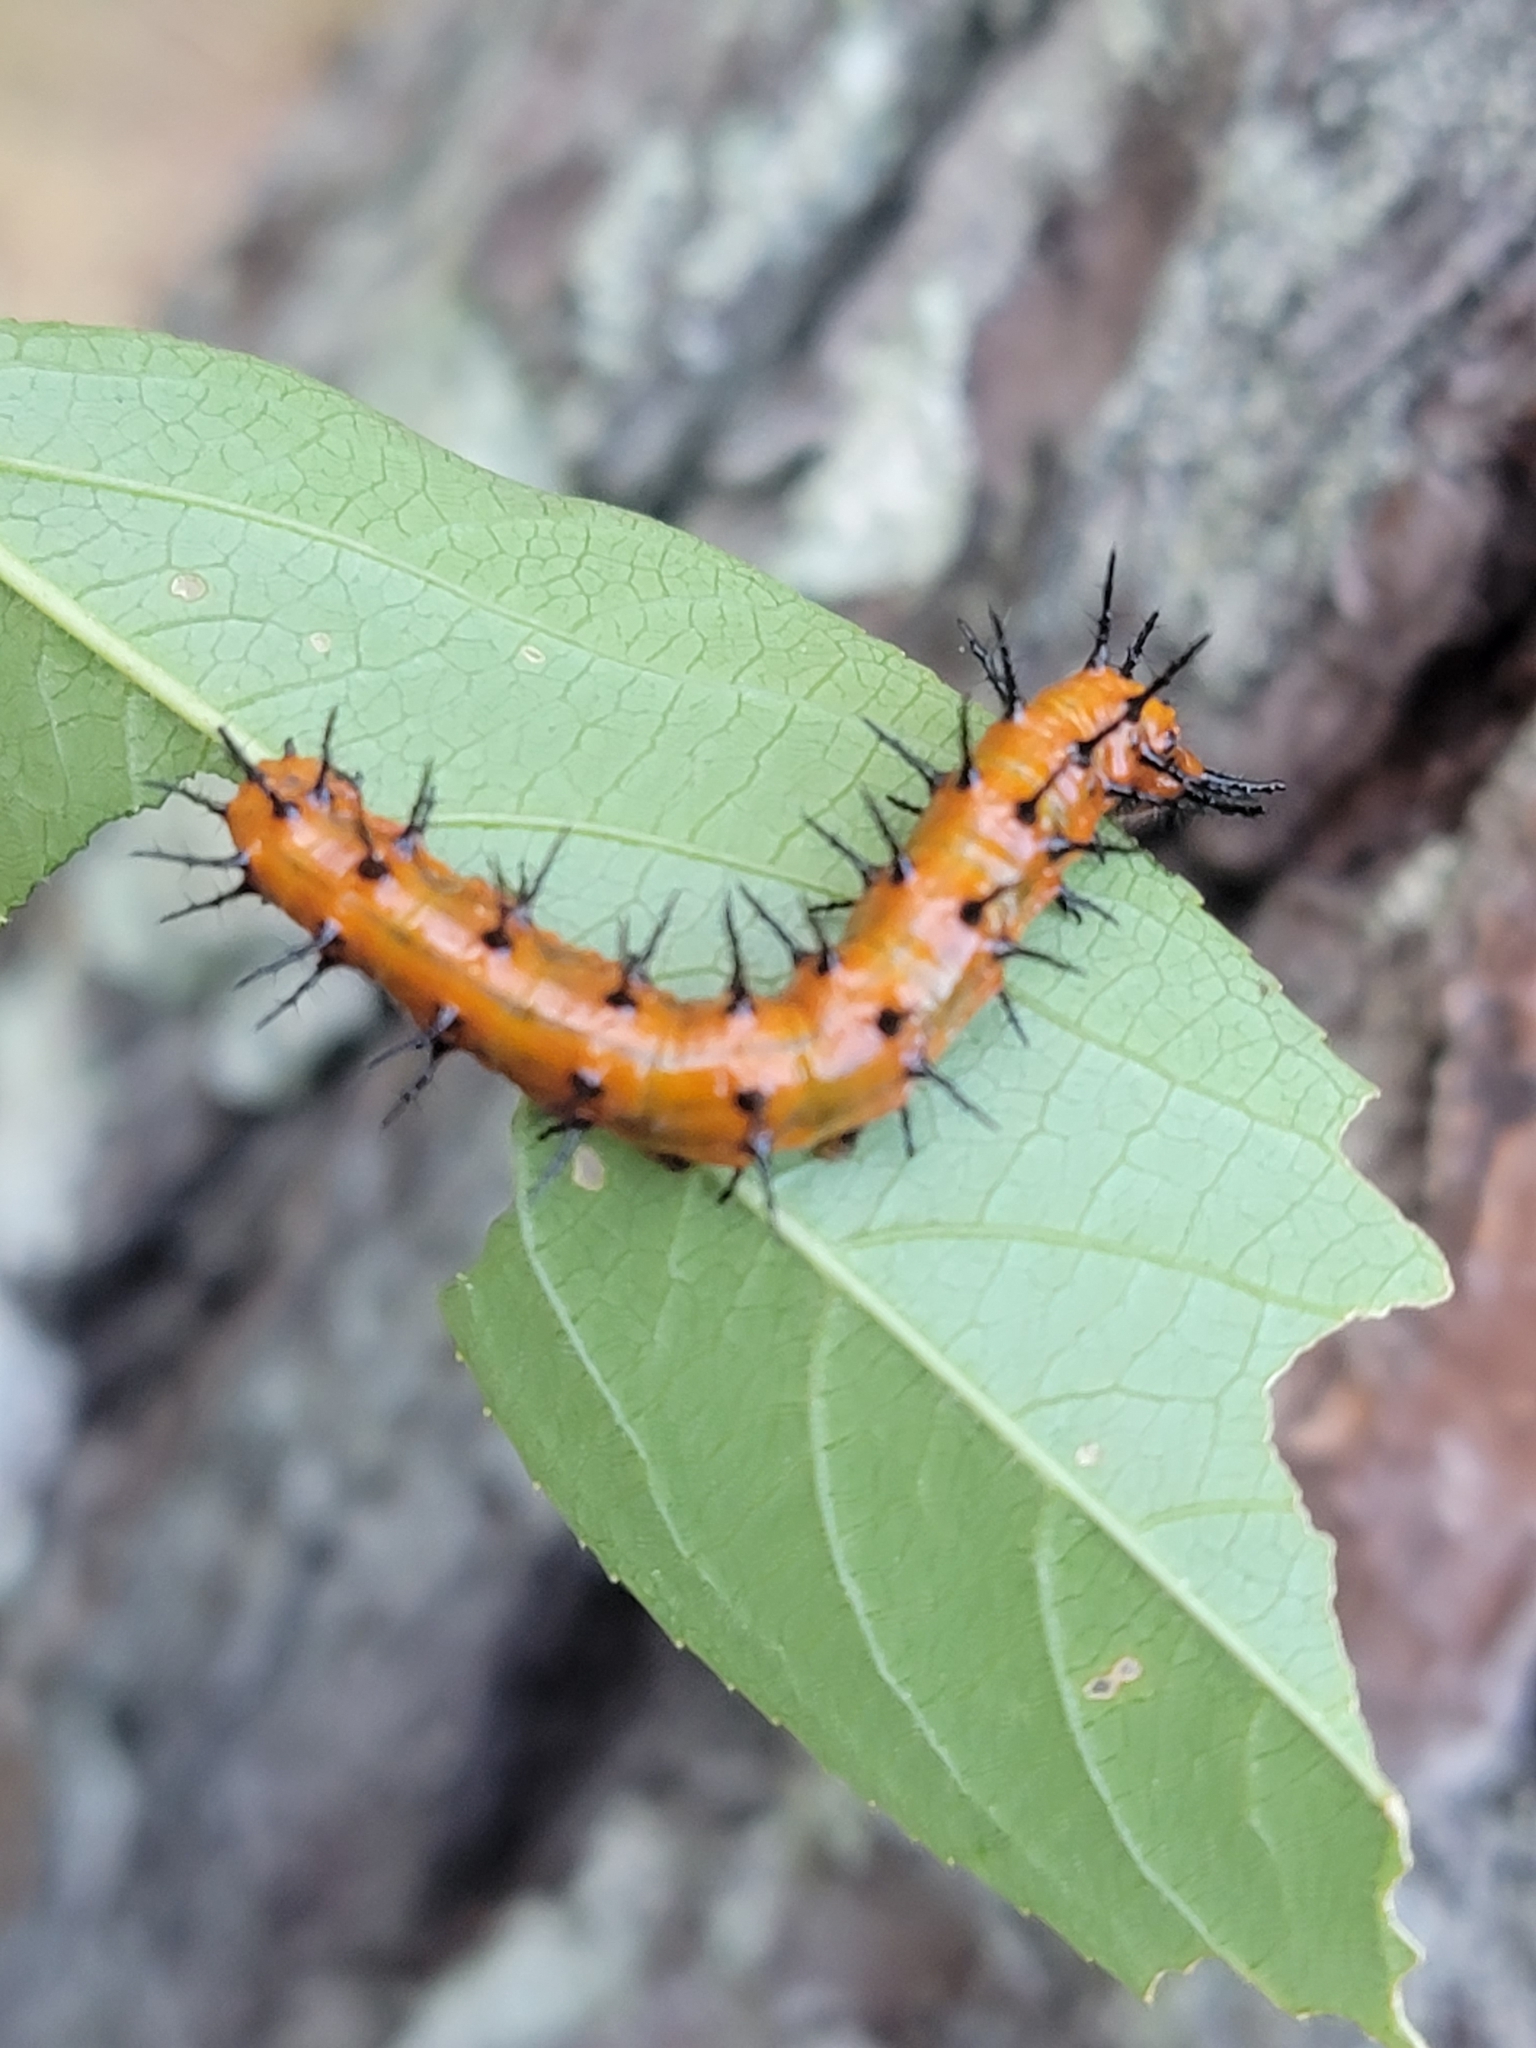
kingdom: Animalia
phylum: Arthropoda
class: Insecta
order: Lepidoptera
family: Nymphalidae
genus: Dione
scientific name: Dione vanillae
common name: Gulf fritillary
